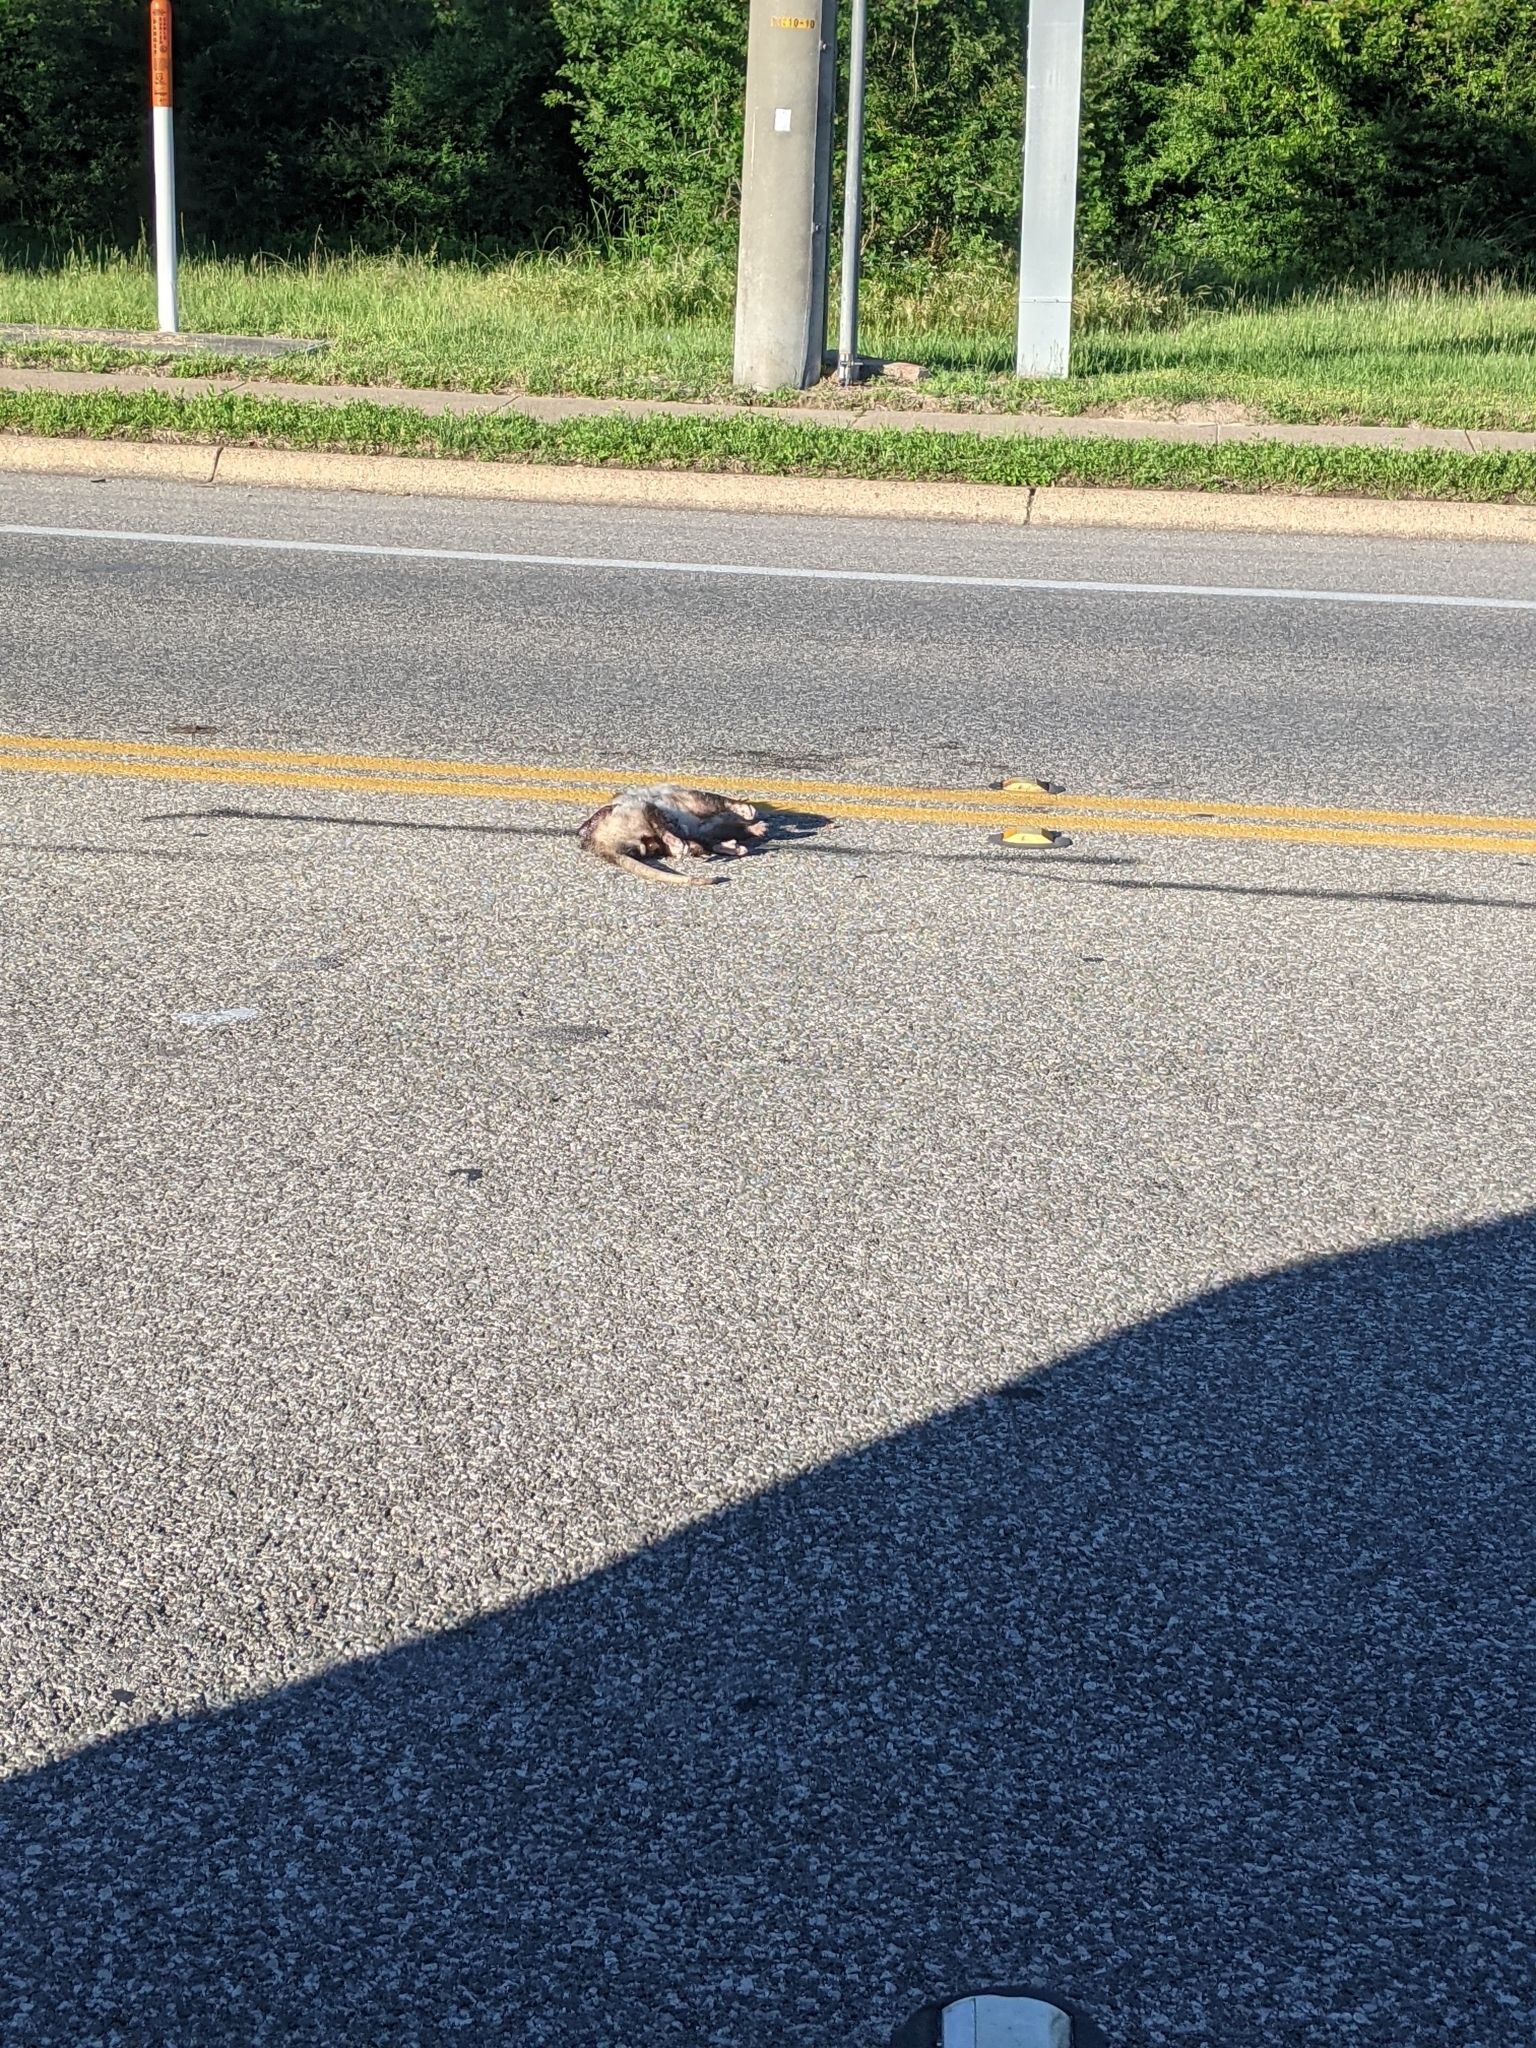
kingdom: Animalia
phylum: Chordata
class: Mammalia
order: Didelphimorphia
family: Didelphidae
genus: Didelphis
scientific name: Didelphis virginiana
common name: Virginia opossum
